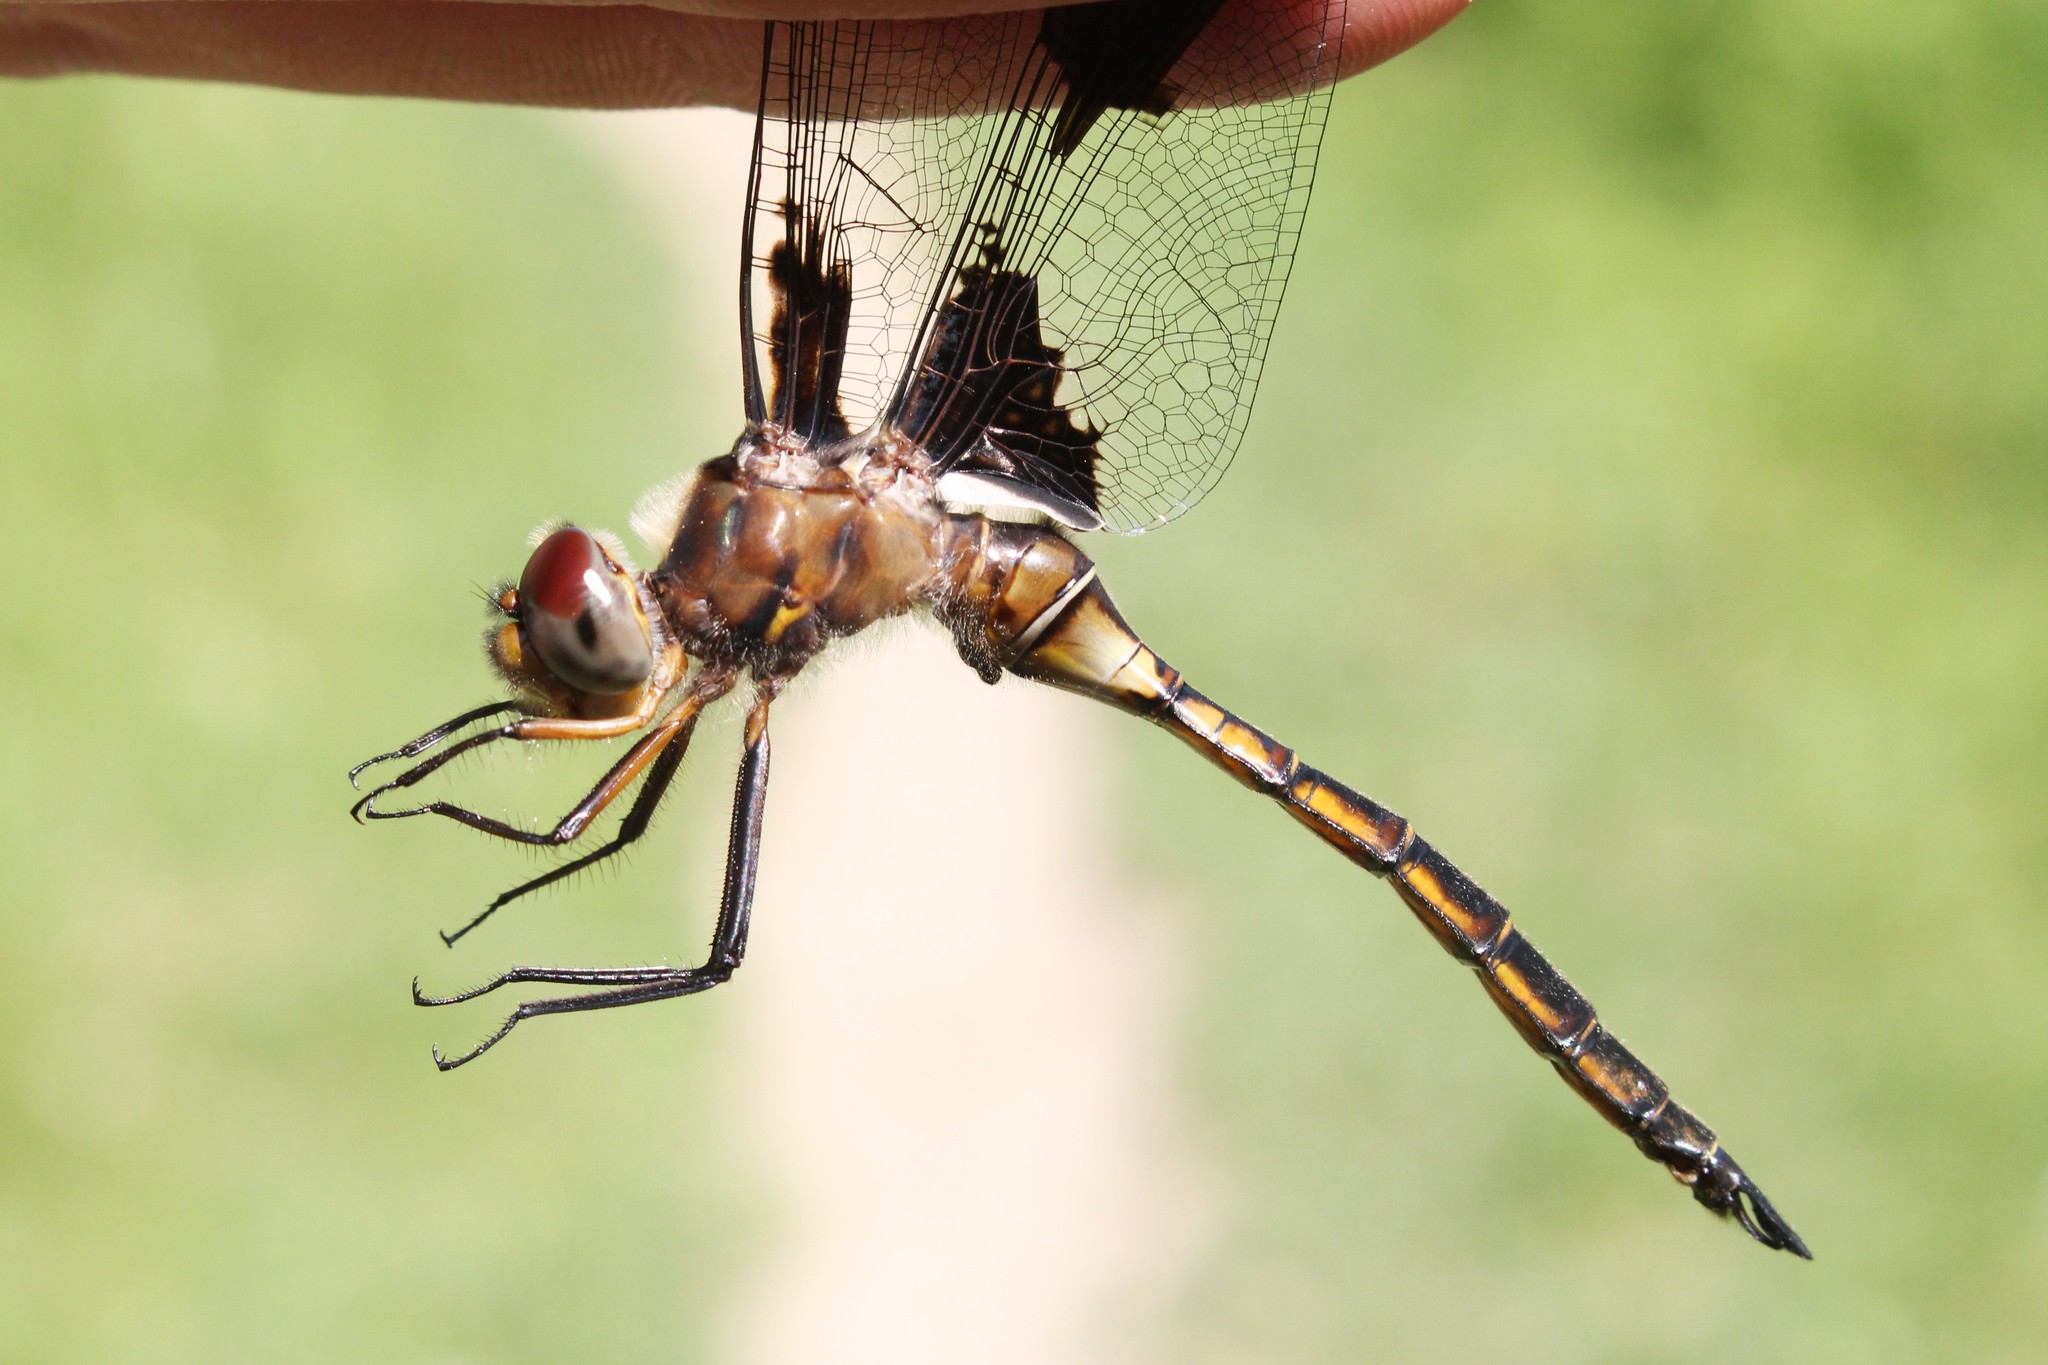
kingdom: Animalia
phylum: Arthropoda
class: Insecta
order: Odonata
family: Corduliidae
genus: Epitheca
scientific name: Epitheca princeps
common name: Prince baskettail
